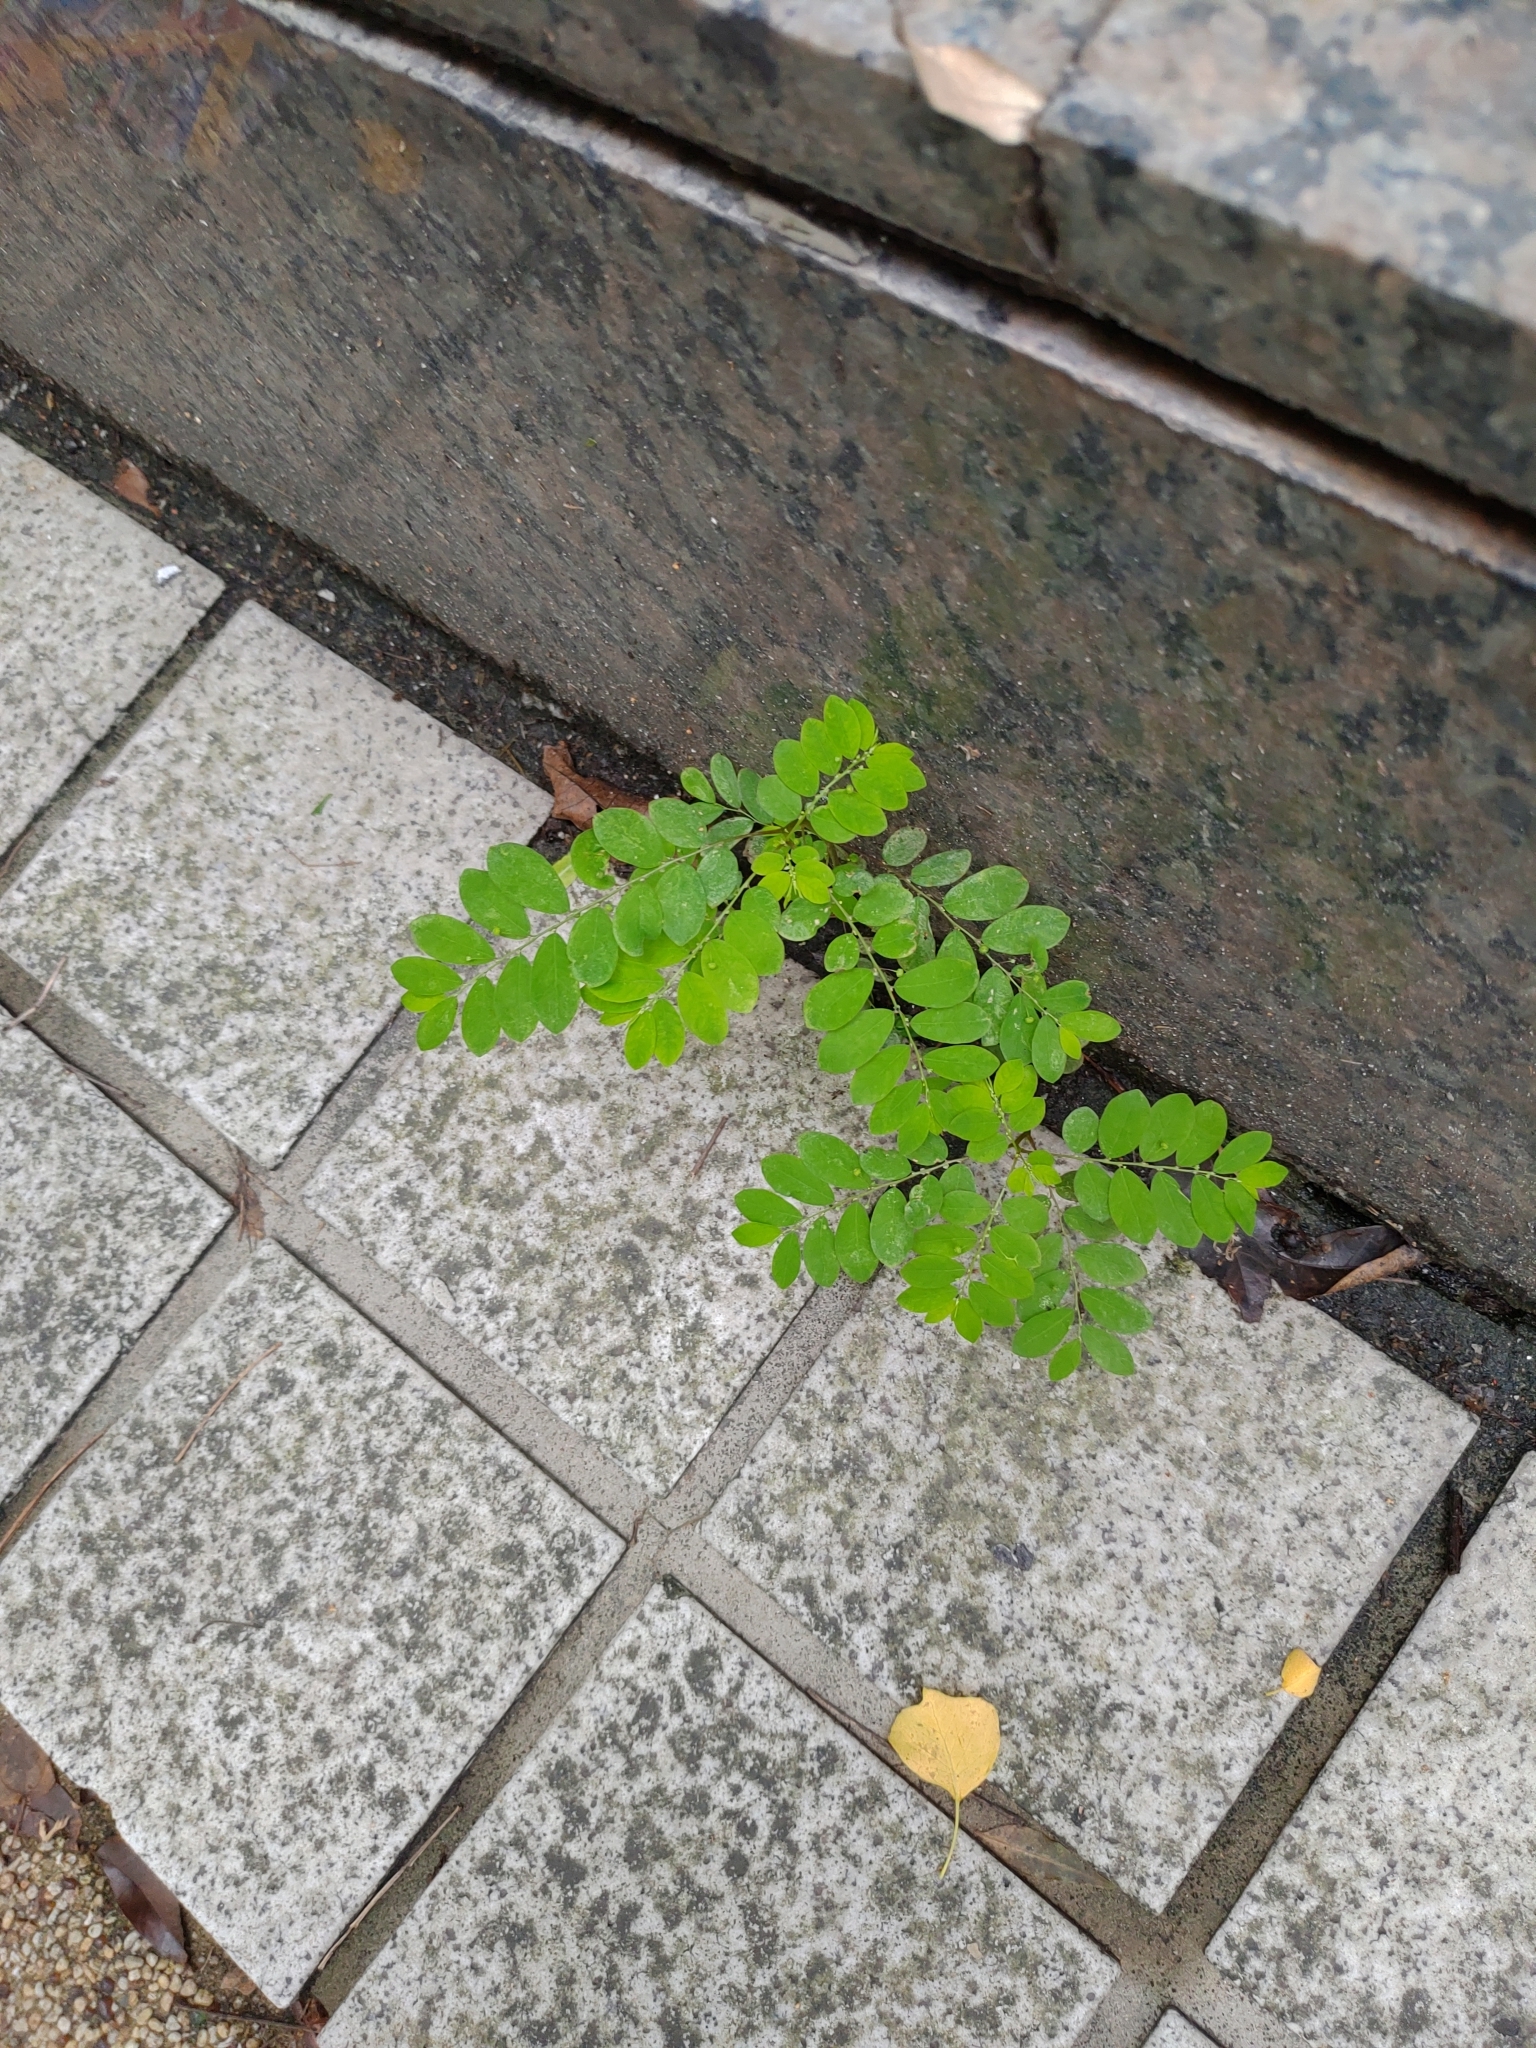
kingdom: Plantae
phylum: Tracheophyta
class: Magnoliopsida
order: Malpighiales
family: Phyllanthaceae
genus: Phyllanthus
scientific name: Phyllanthus tenellus
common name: Mascarene island leaf-flower
